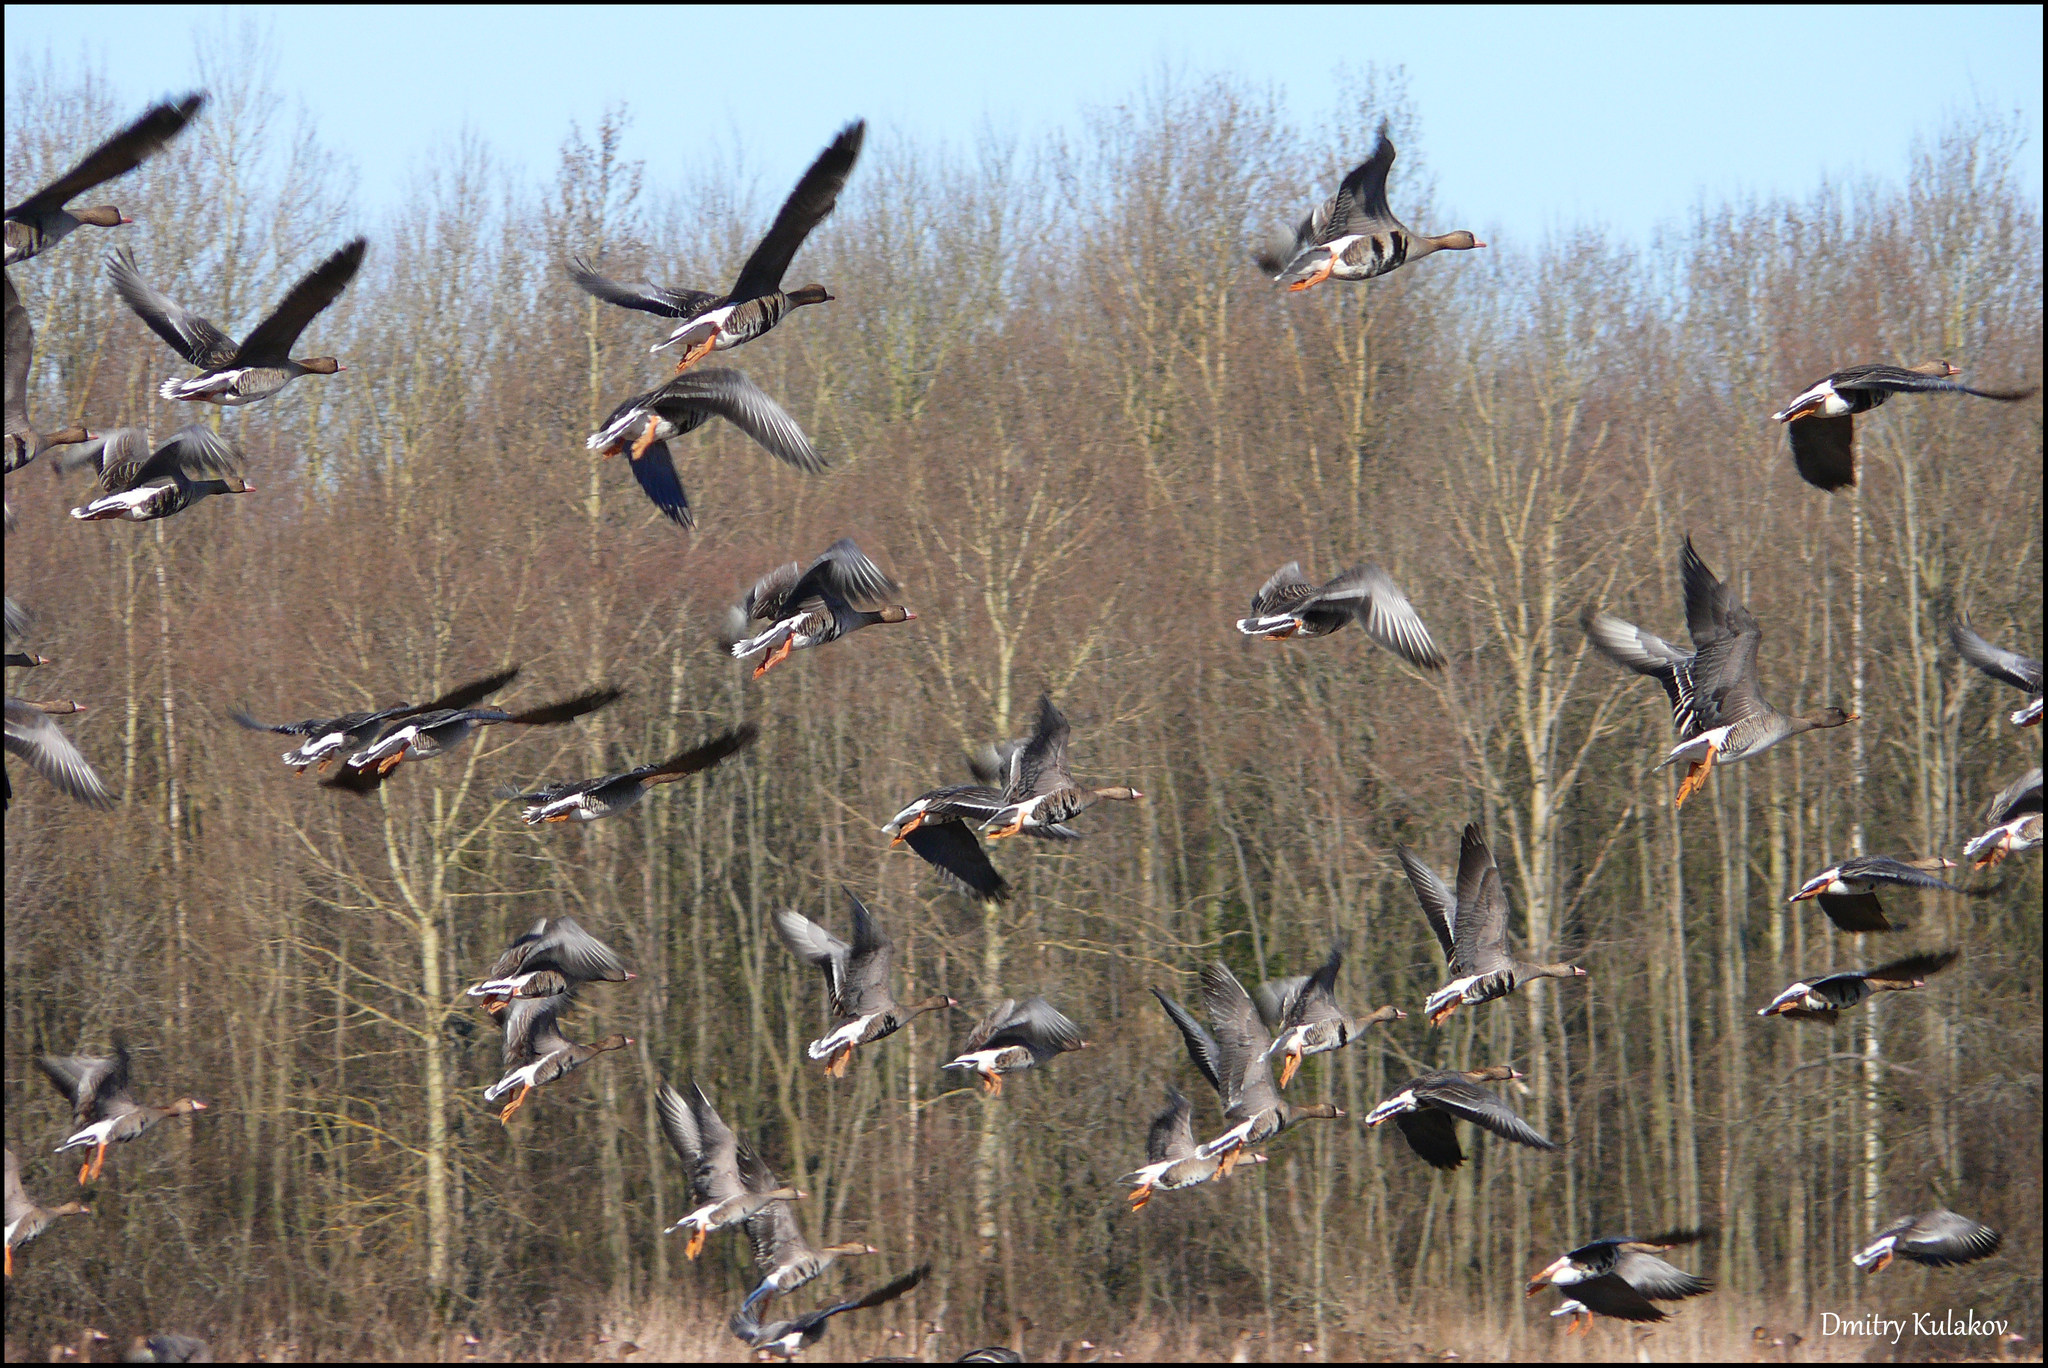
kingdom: Animalia
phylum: Chordata
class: Aves
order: Anseriformes
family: Anatidae
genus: Anser
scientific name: Anser albifrons
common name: Greater white-fronted goose
